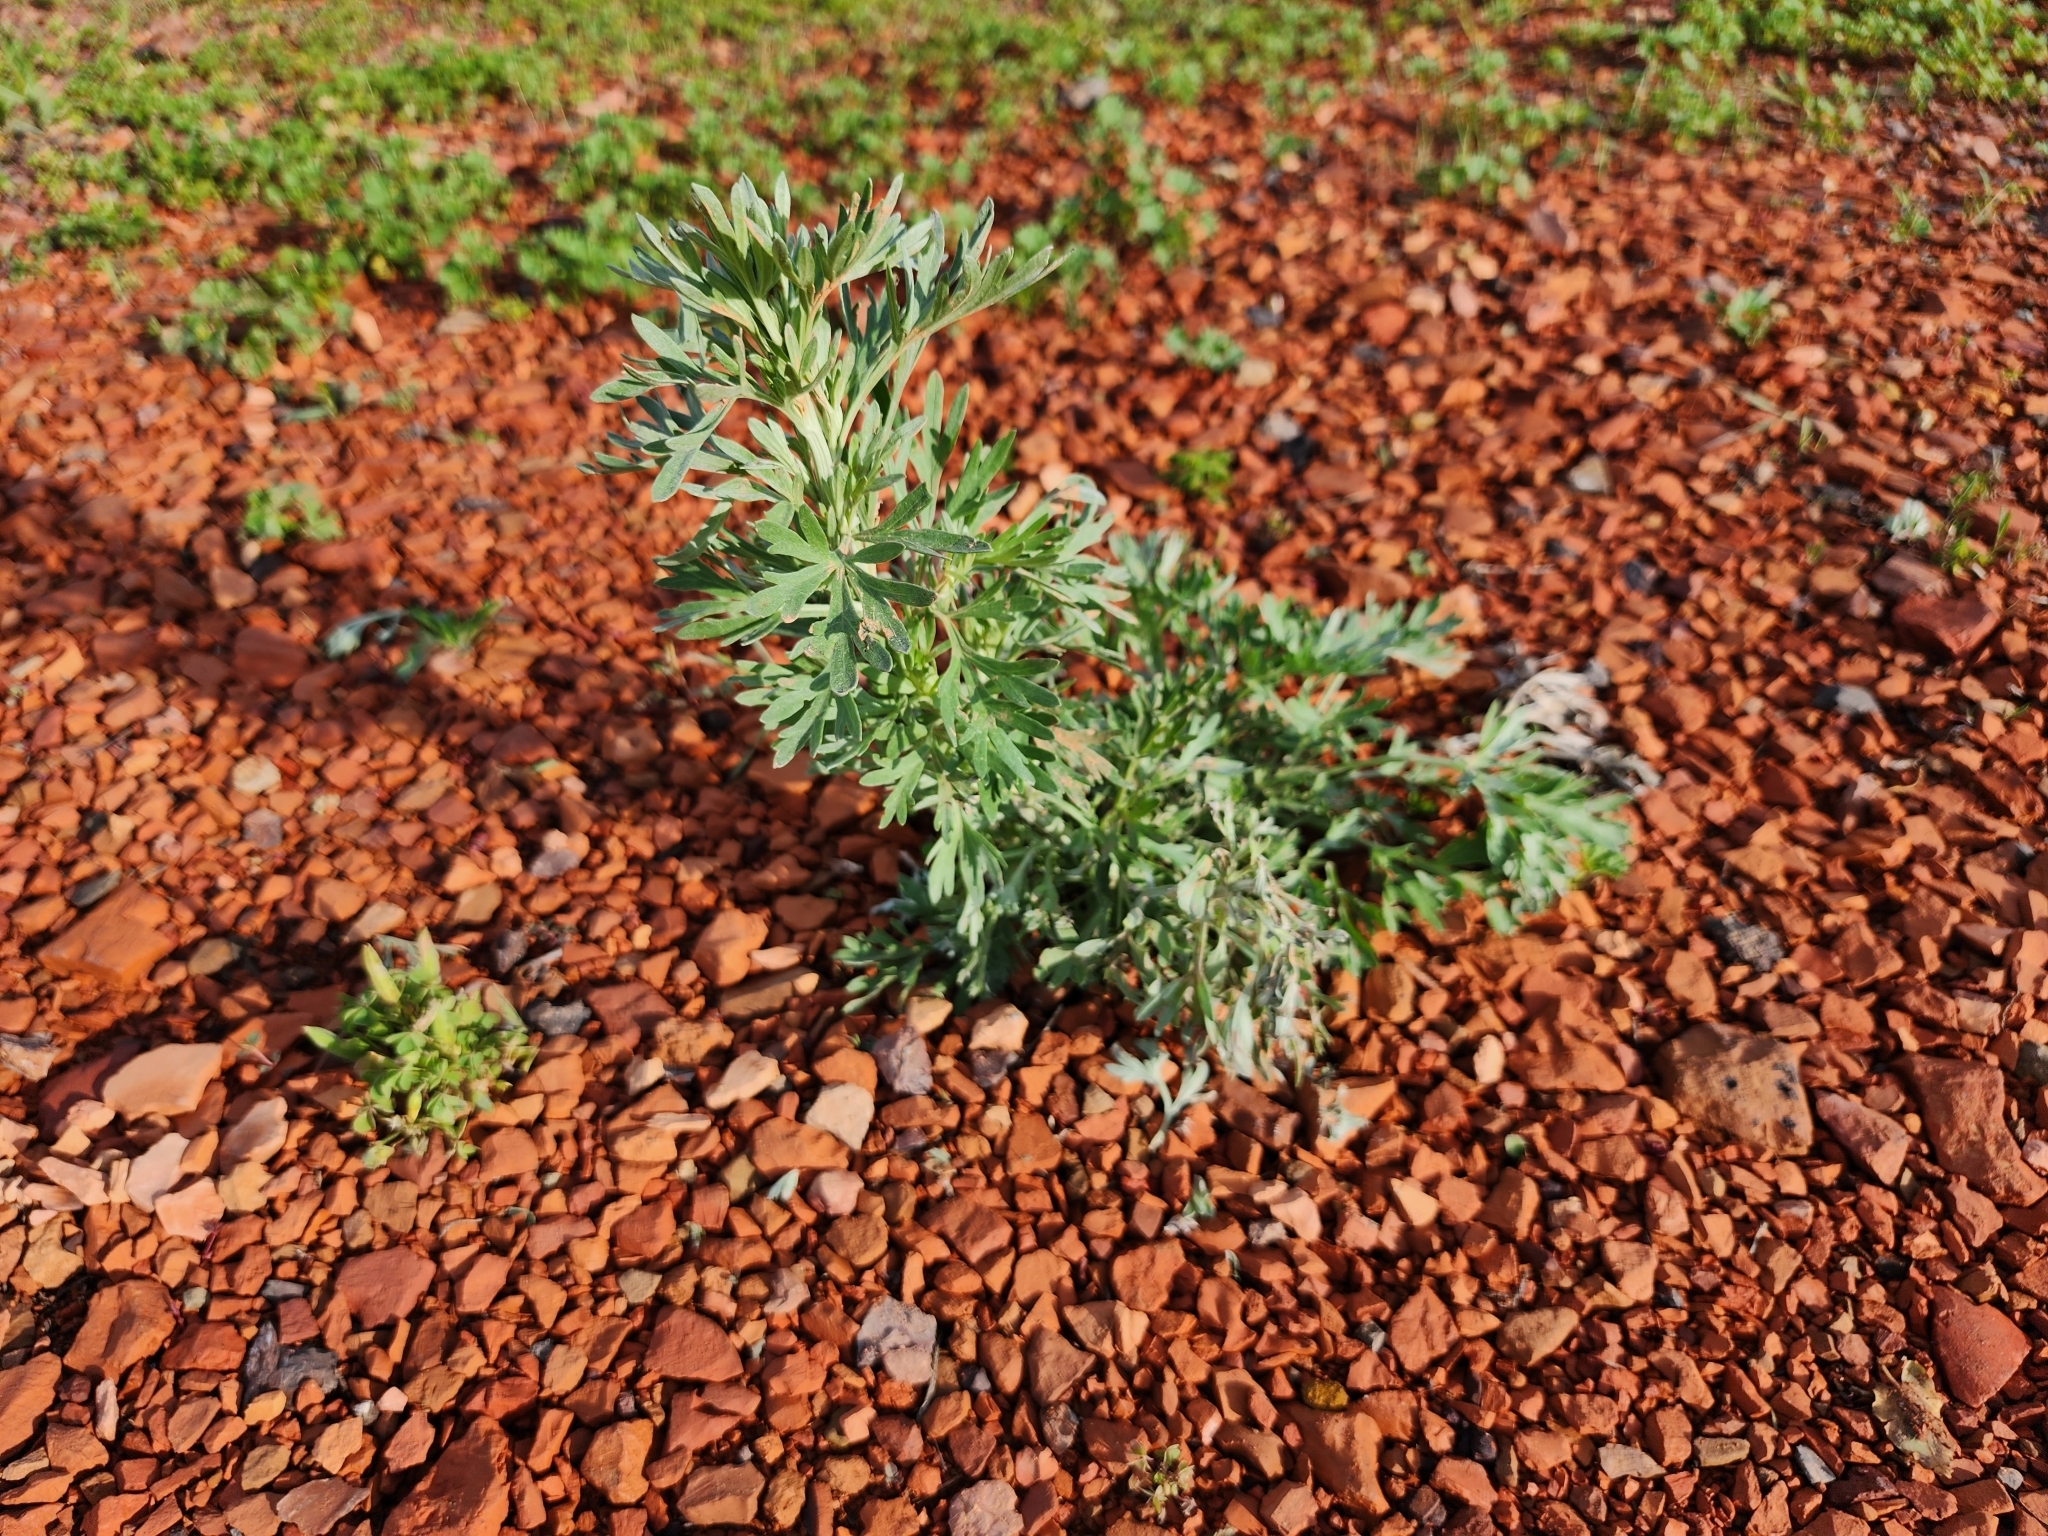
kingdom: Plantae
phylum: Tracheophyta
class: Magnoliopsida
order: Asterales
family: Asteraceae
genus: Artemisia
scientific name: Artemisia absinthium
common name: Wormwood
